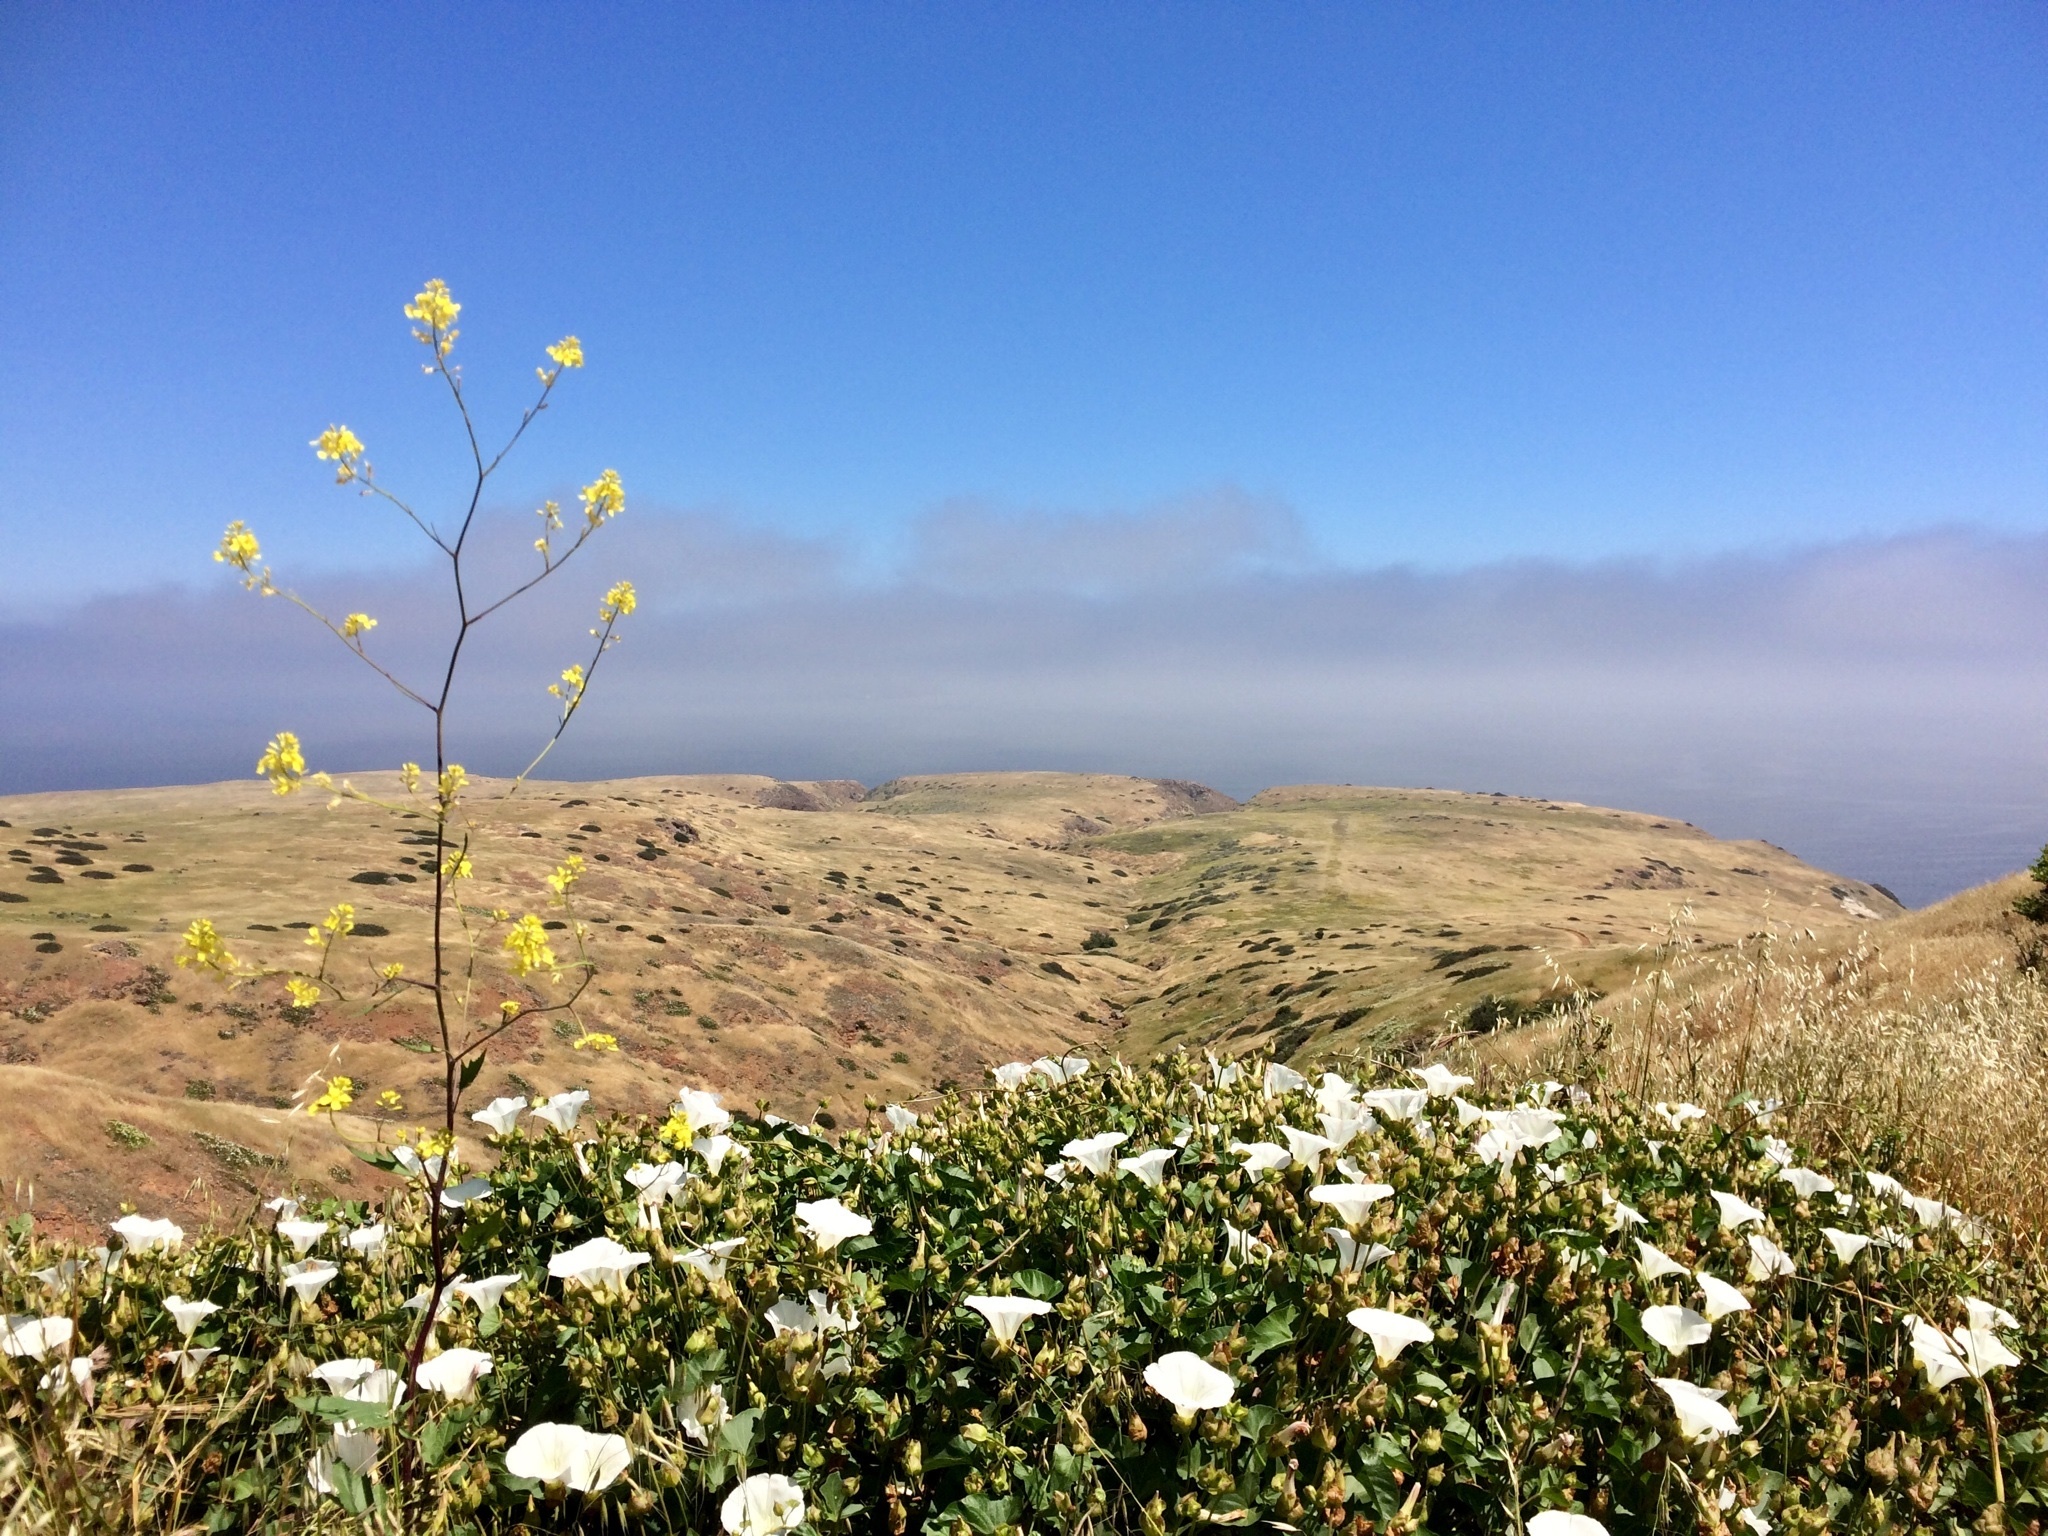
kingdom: Plantae
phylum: Tracheophyta
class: Magnoliopsida
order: Brassicales
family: Brassicaceae
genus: Brassica
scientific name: Brassica nigra
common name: Black mustard
